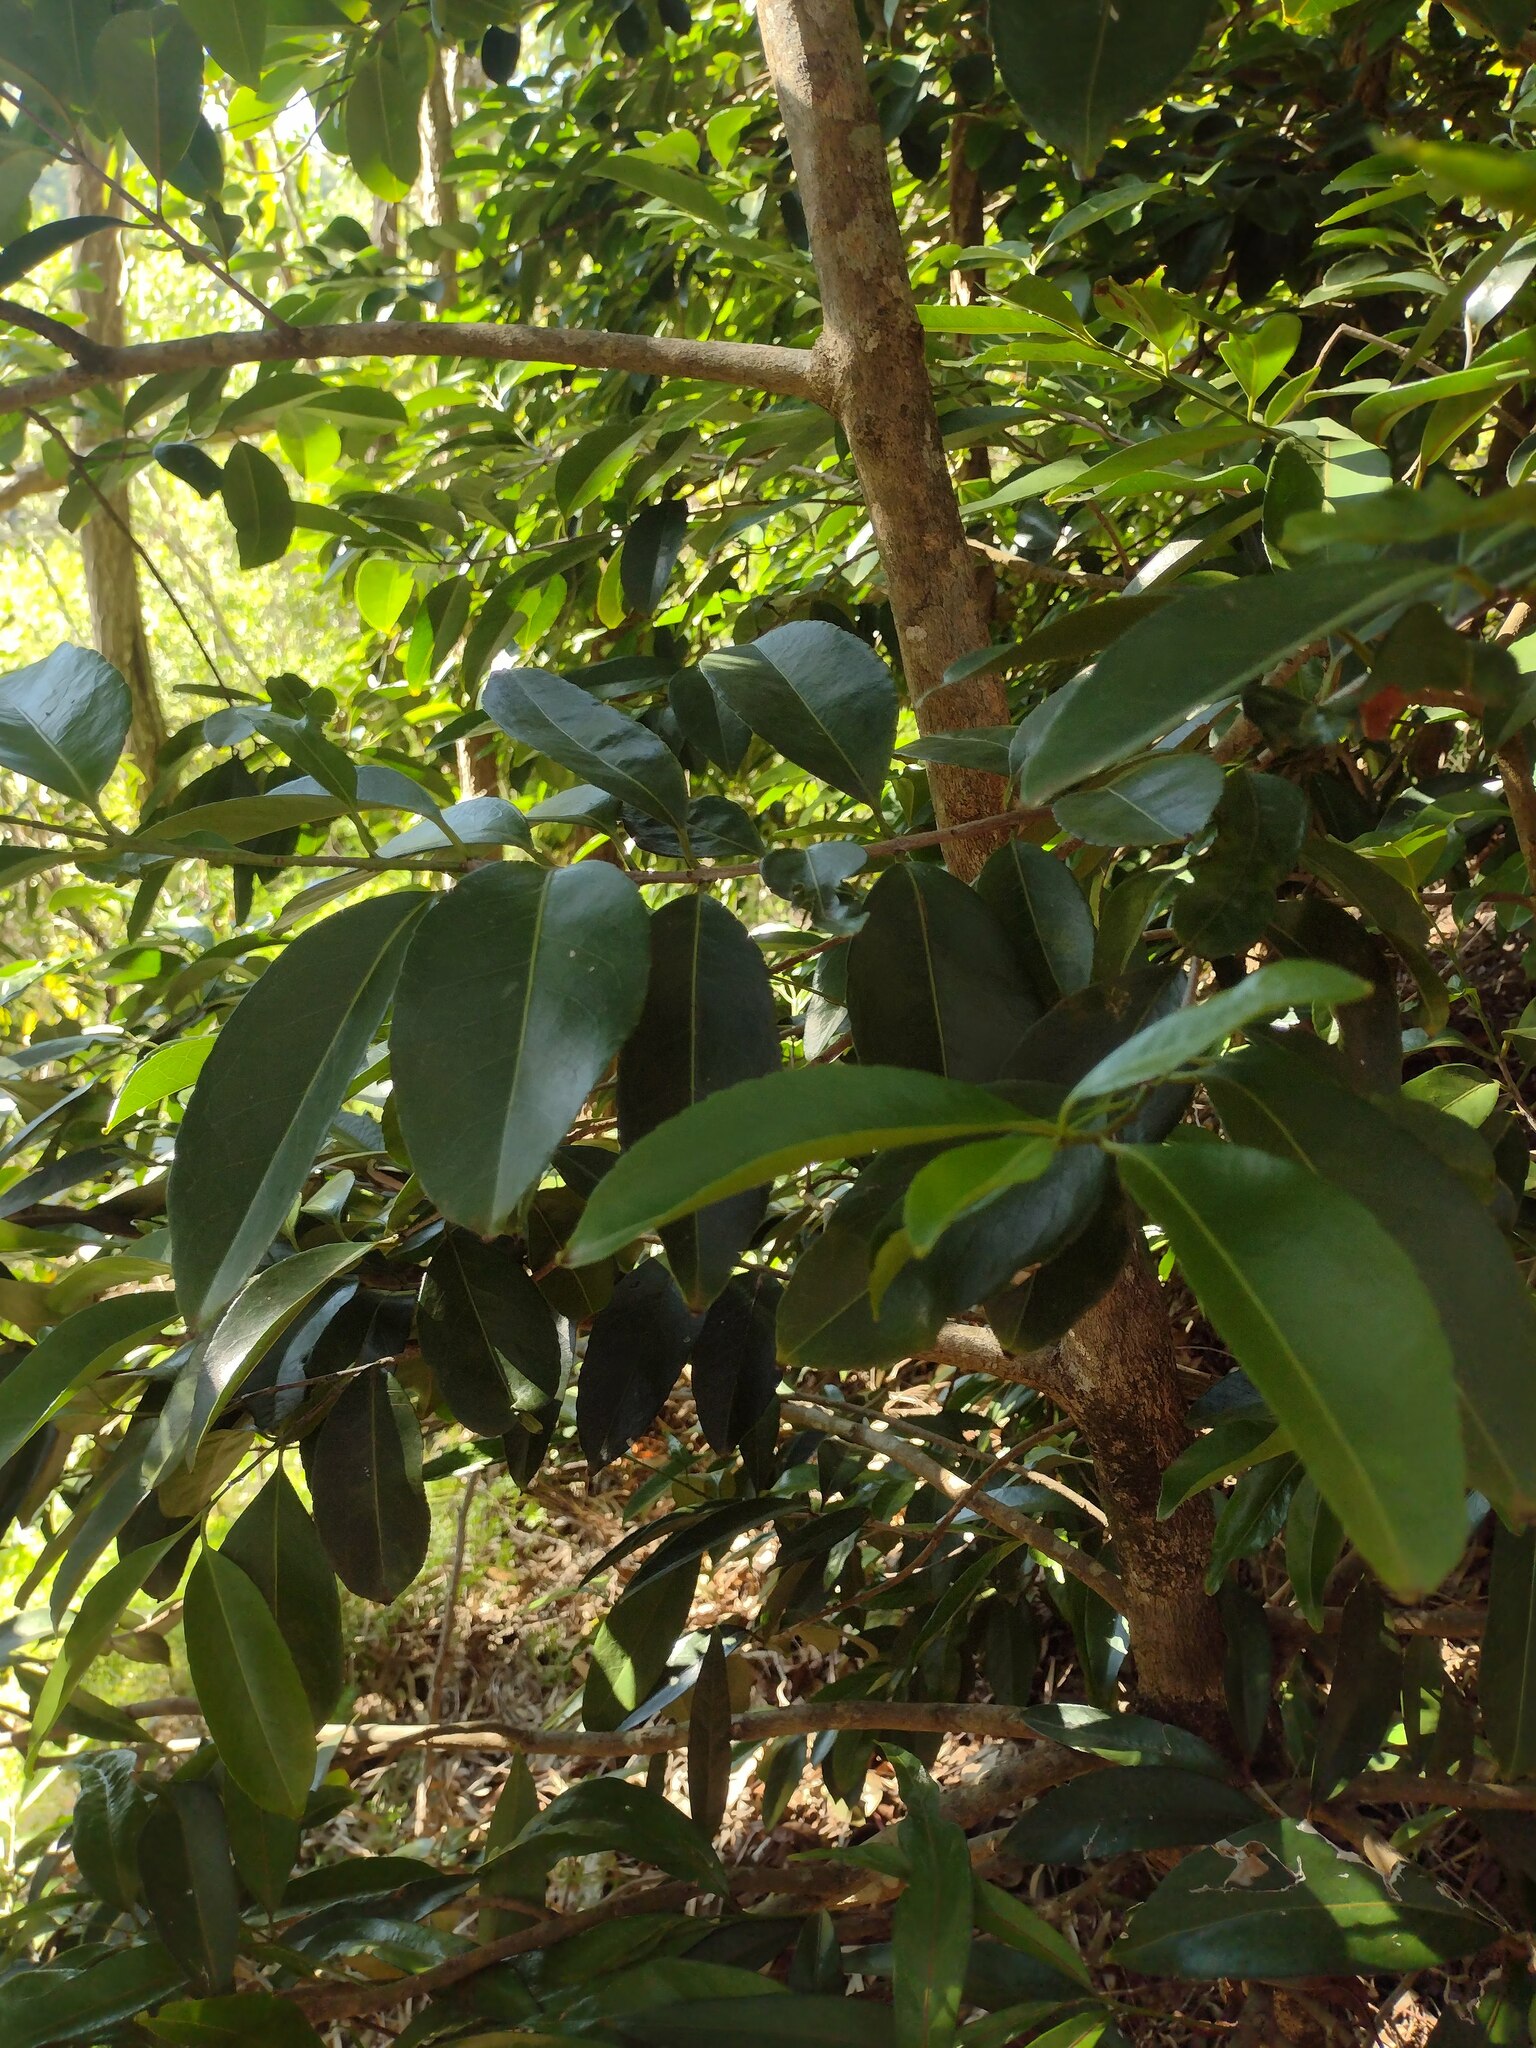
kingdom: Plantae
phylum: Tracheophyta
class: Magnoliopsida
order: Celastrales
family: Celastraceae
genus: Elaeodendron
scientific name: Elaeodendron orientale
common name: False olive
